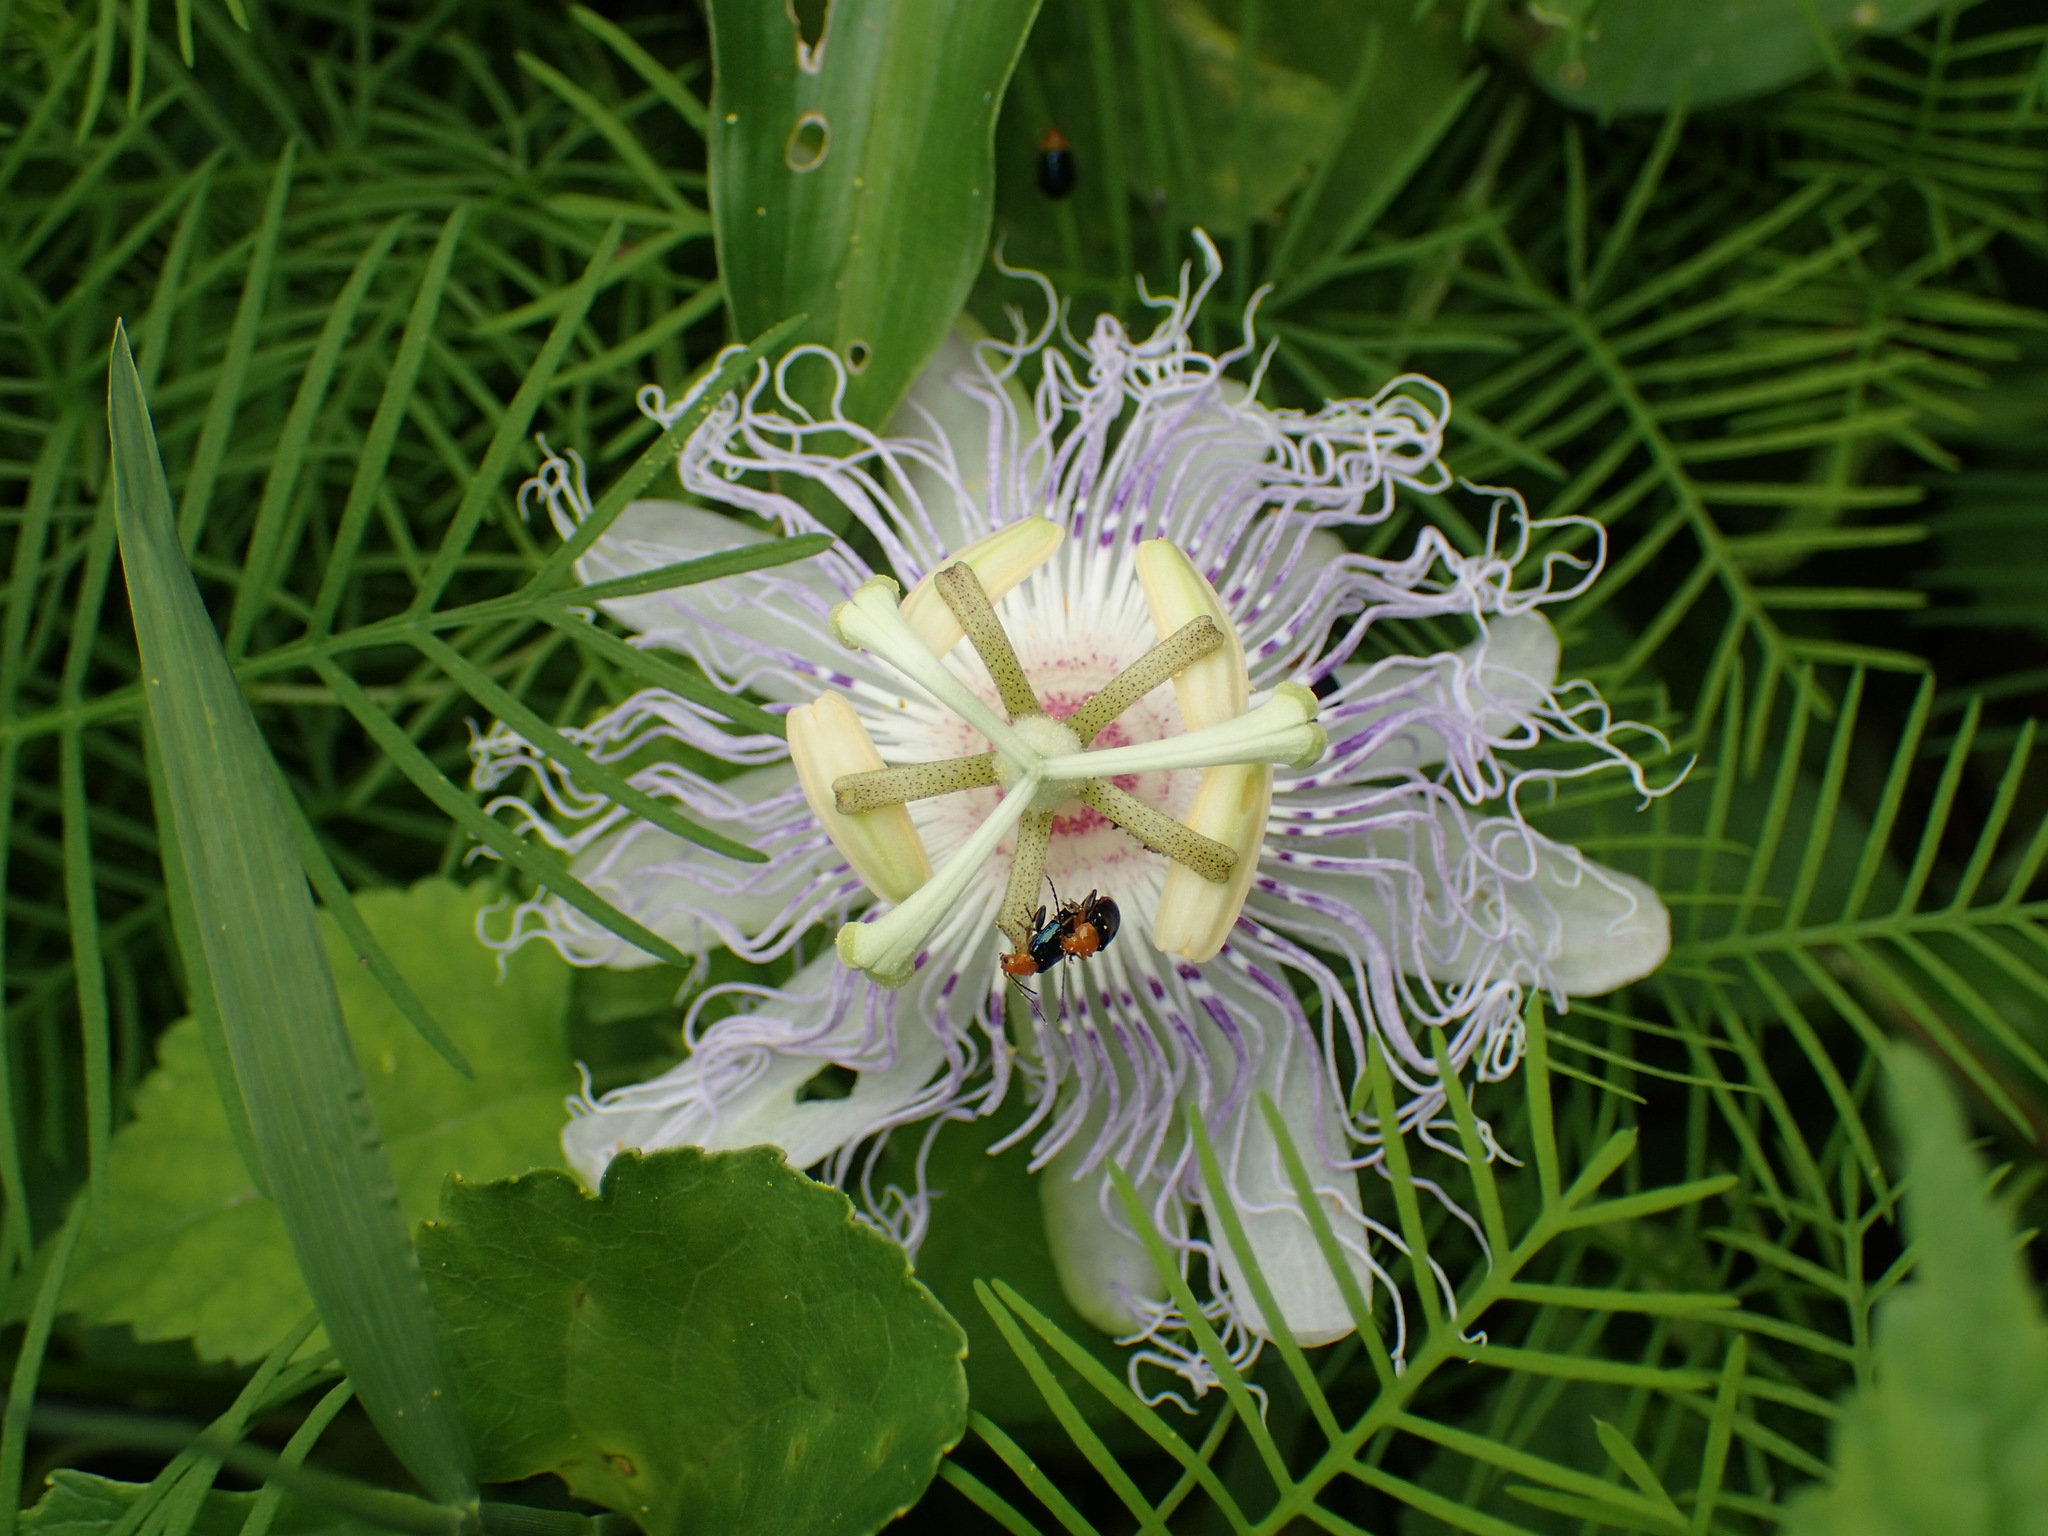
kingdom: Plantae
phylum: Tracheophyta
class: Magnoliopsida
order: Malpighiales
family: Passifloraceae
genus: Passiflora
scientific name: Passiflora incarnata
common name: Apricot-vine
